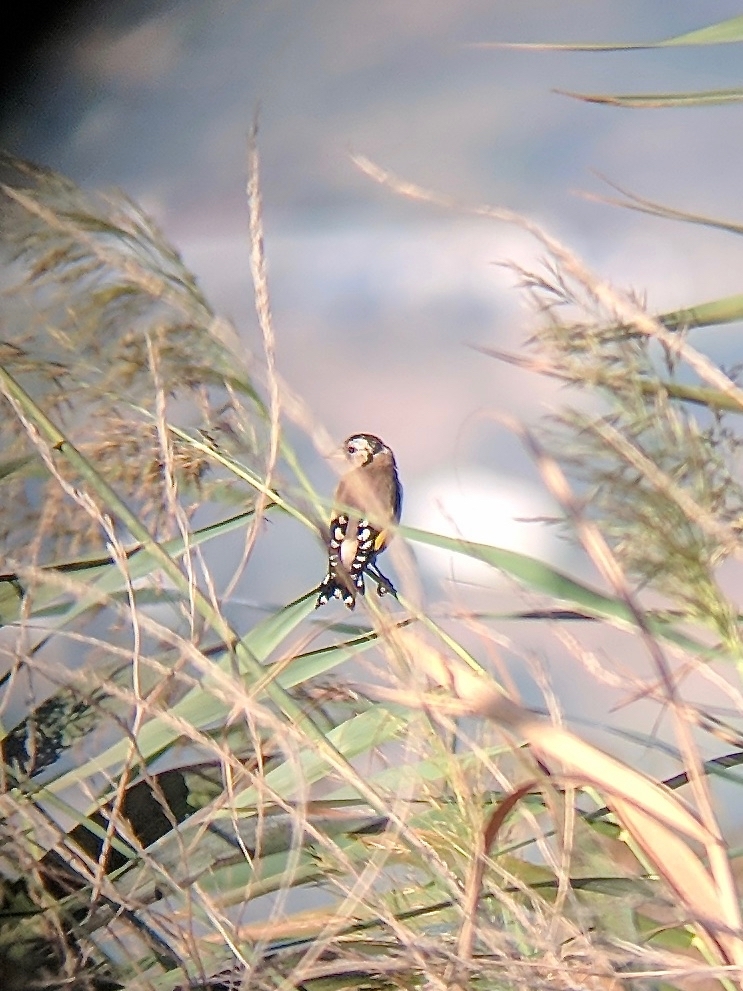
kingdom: Animalia
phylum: Chordata
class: Aves
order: Passeriformes
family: Fringillidae
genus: Carduelis
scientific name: Carduelis carduelis
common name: European goldfinch
